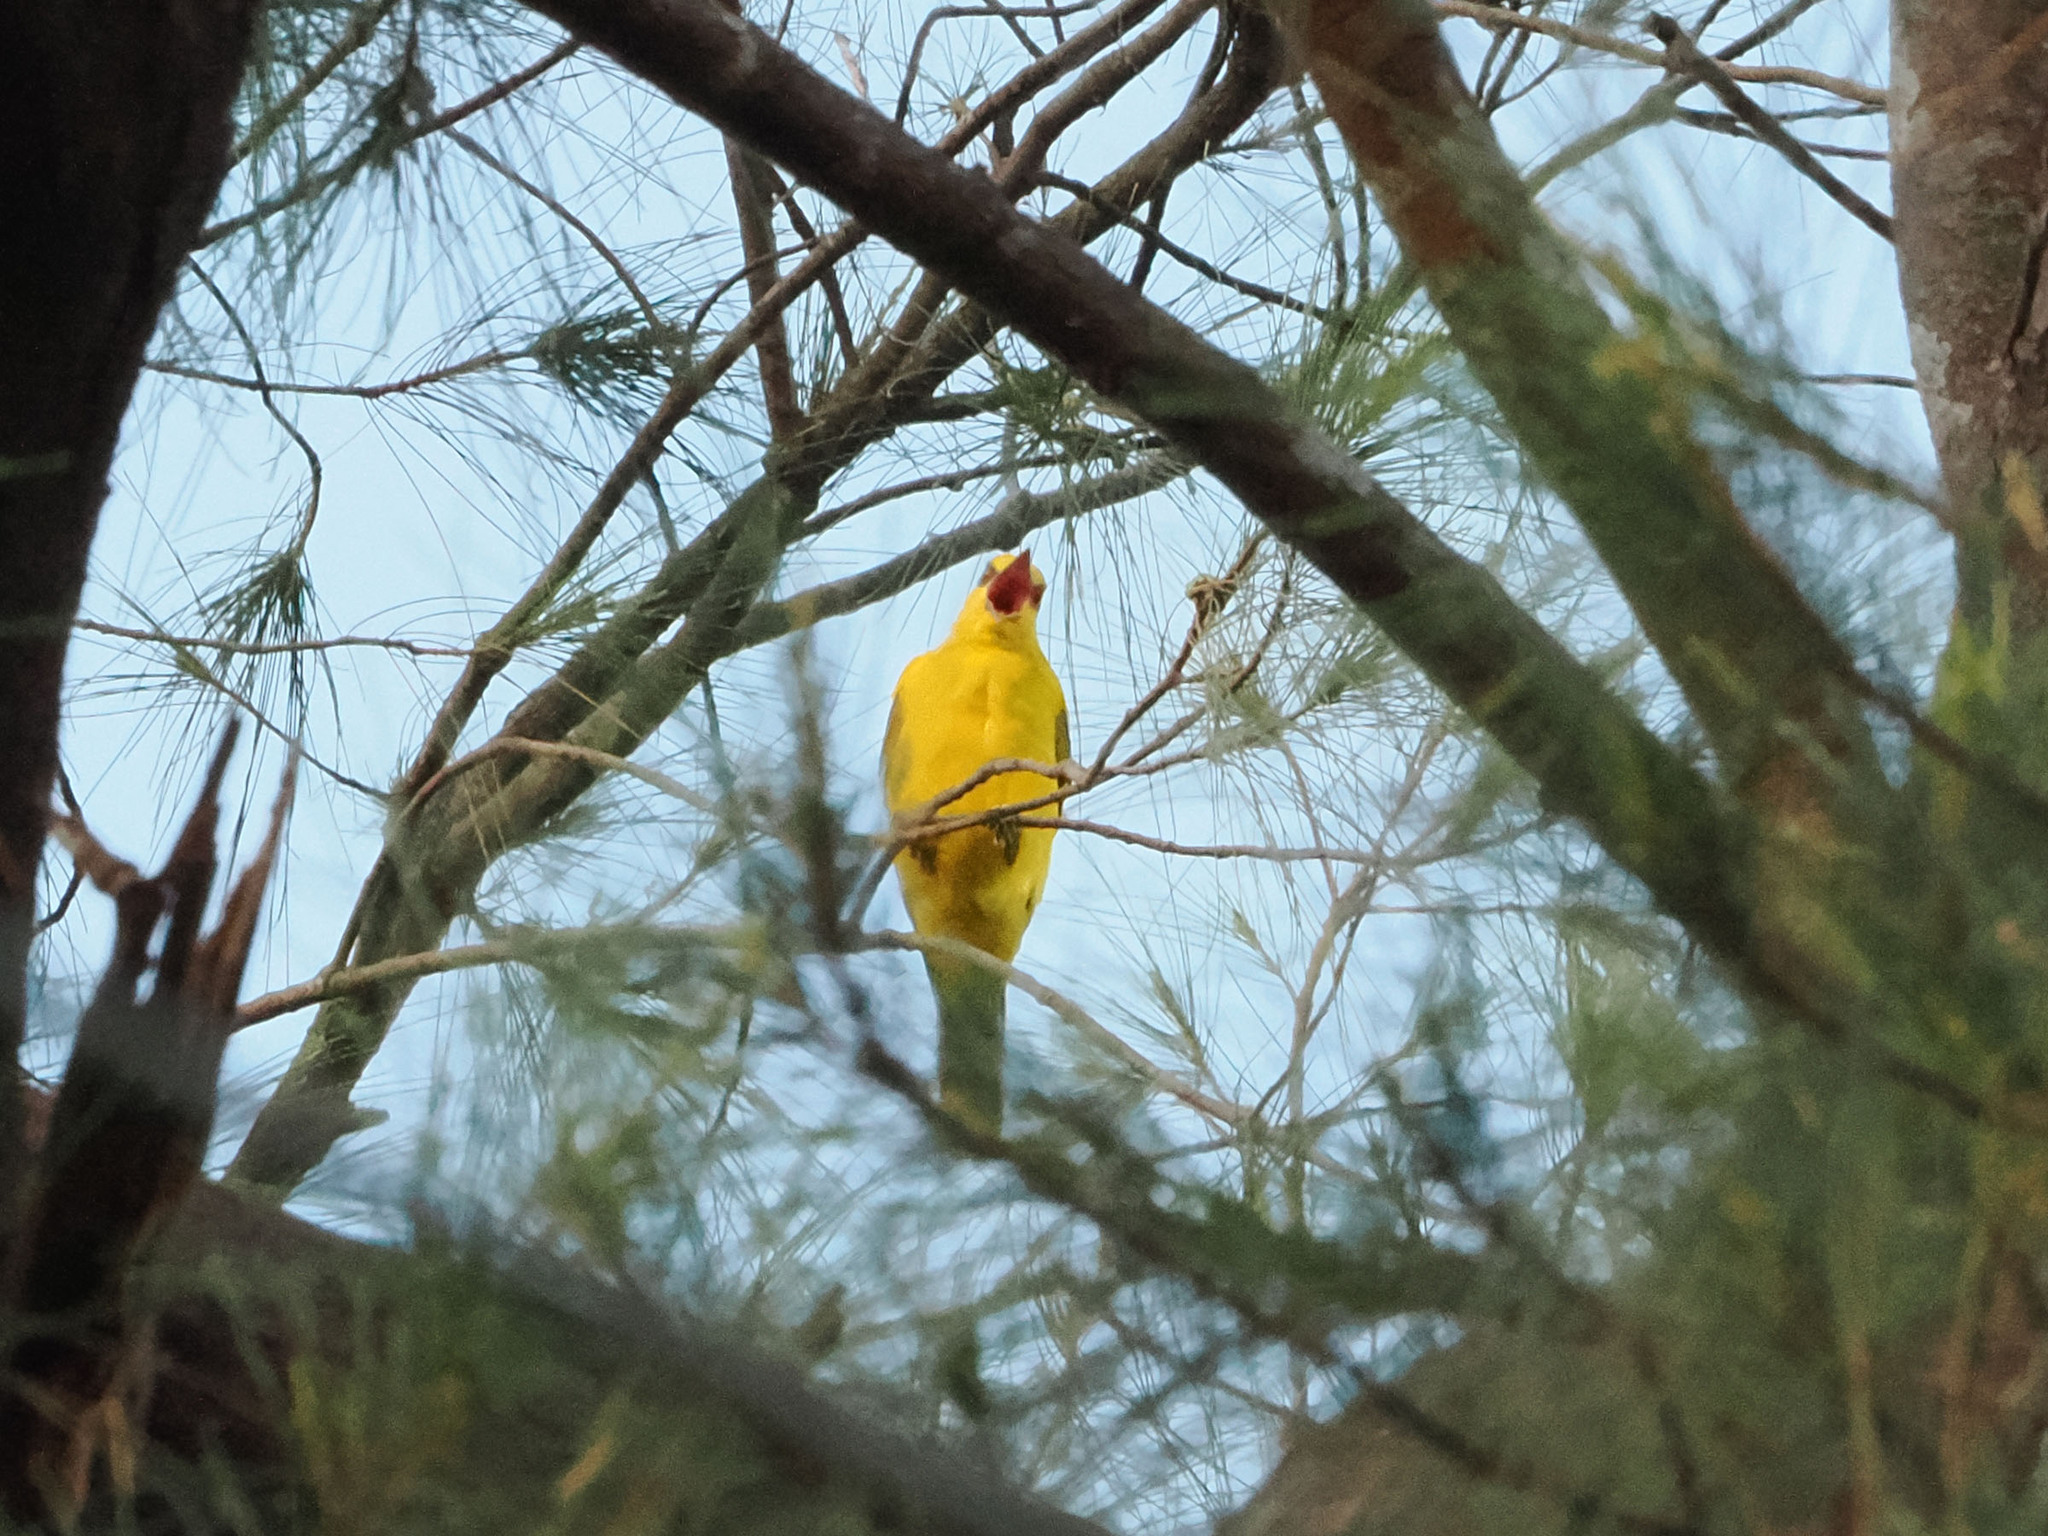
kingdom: Animalia
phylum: Chordata
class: Aves
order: Passeriformes
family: Oriolidae
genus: Oriolus
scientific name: Oriolus chinensis
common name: Black-naped oriole
